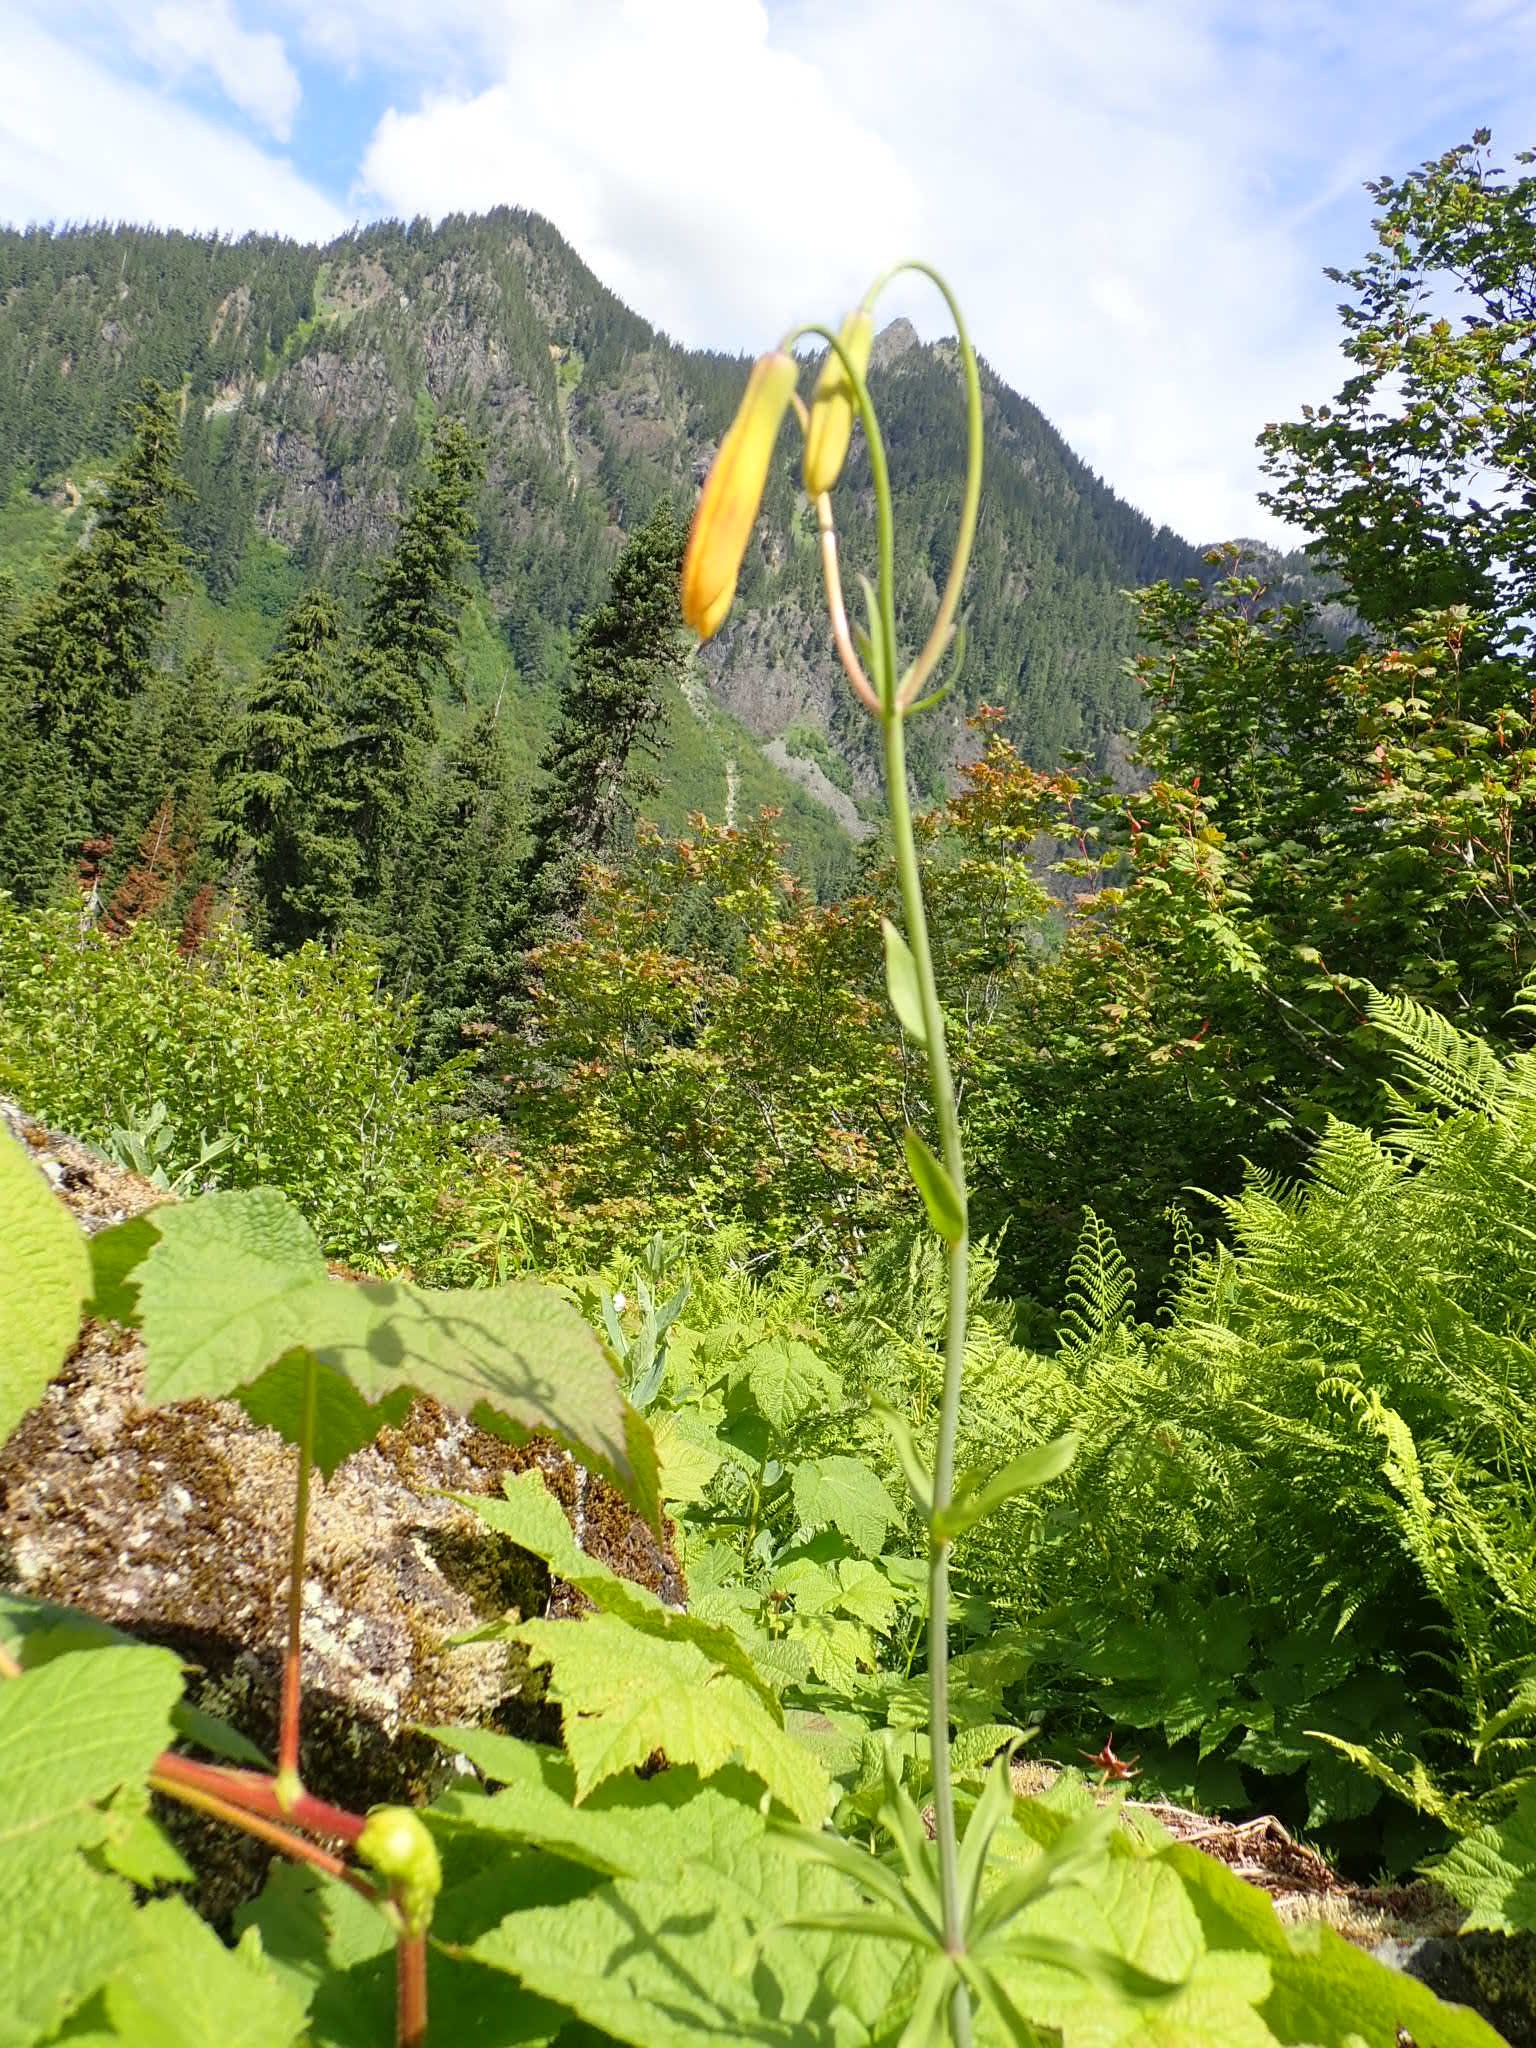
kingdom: Plantae
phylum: Tracheophyta
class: Liliopsida
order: Liliales
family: Liliaceae
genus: Lilium
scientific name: Lilium columbianum
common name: Columbia lily
